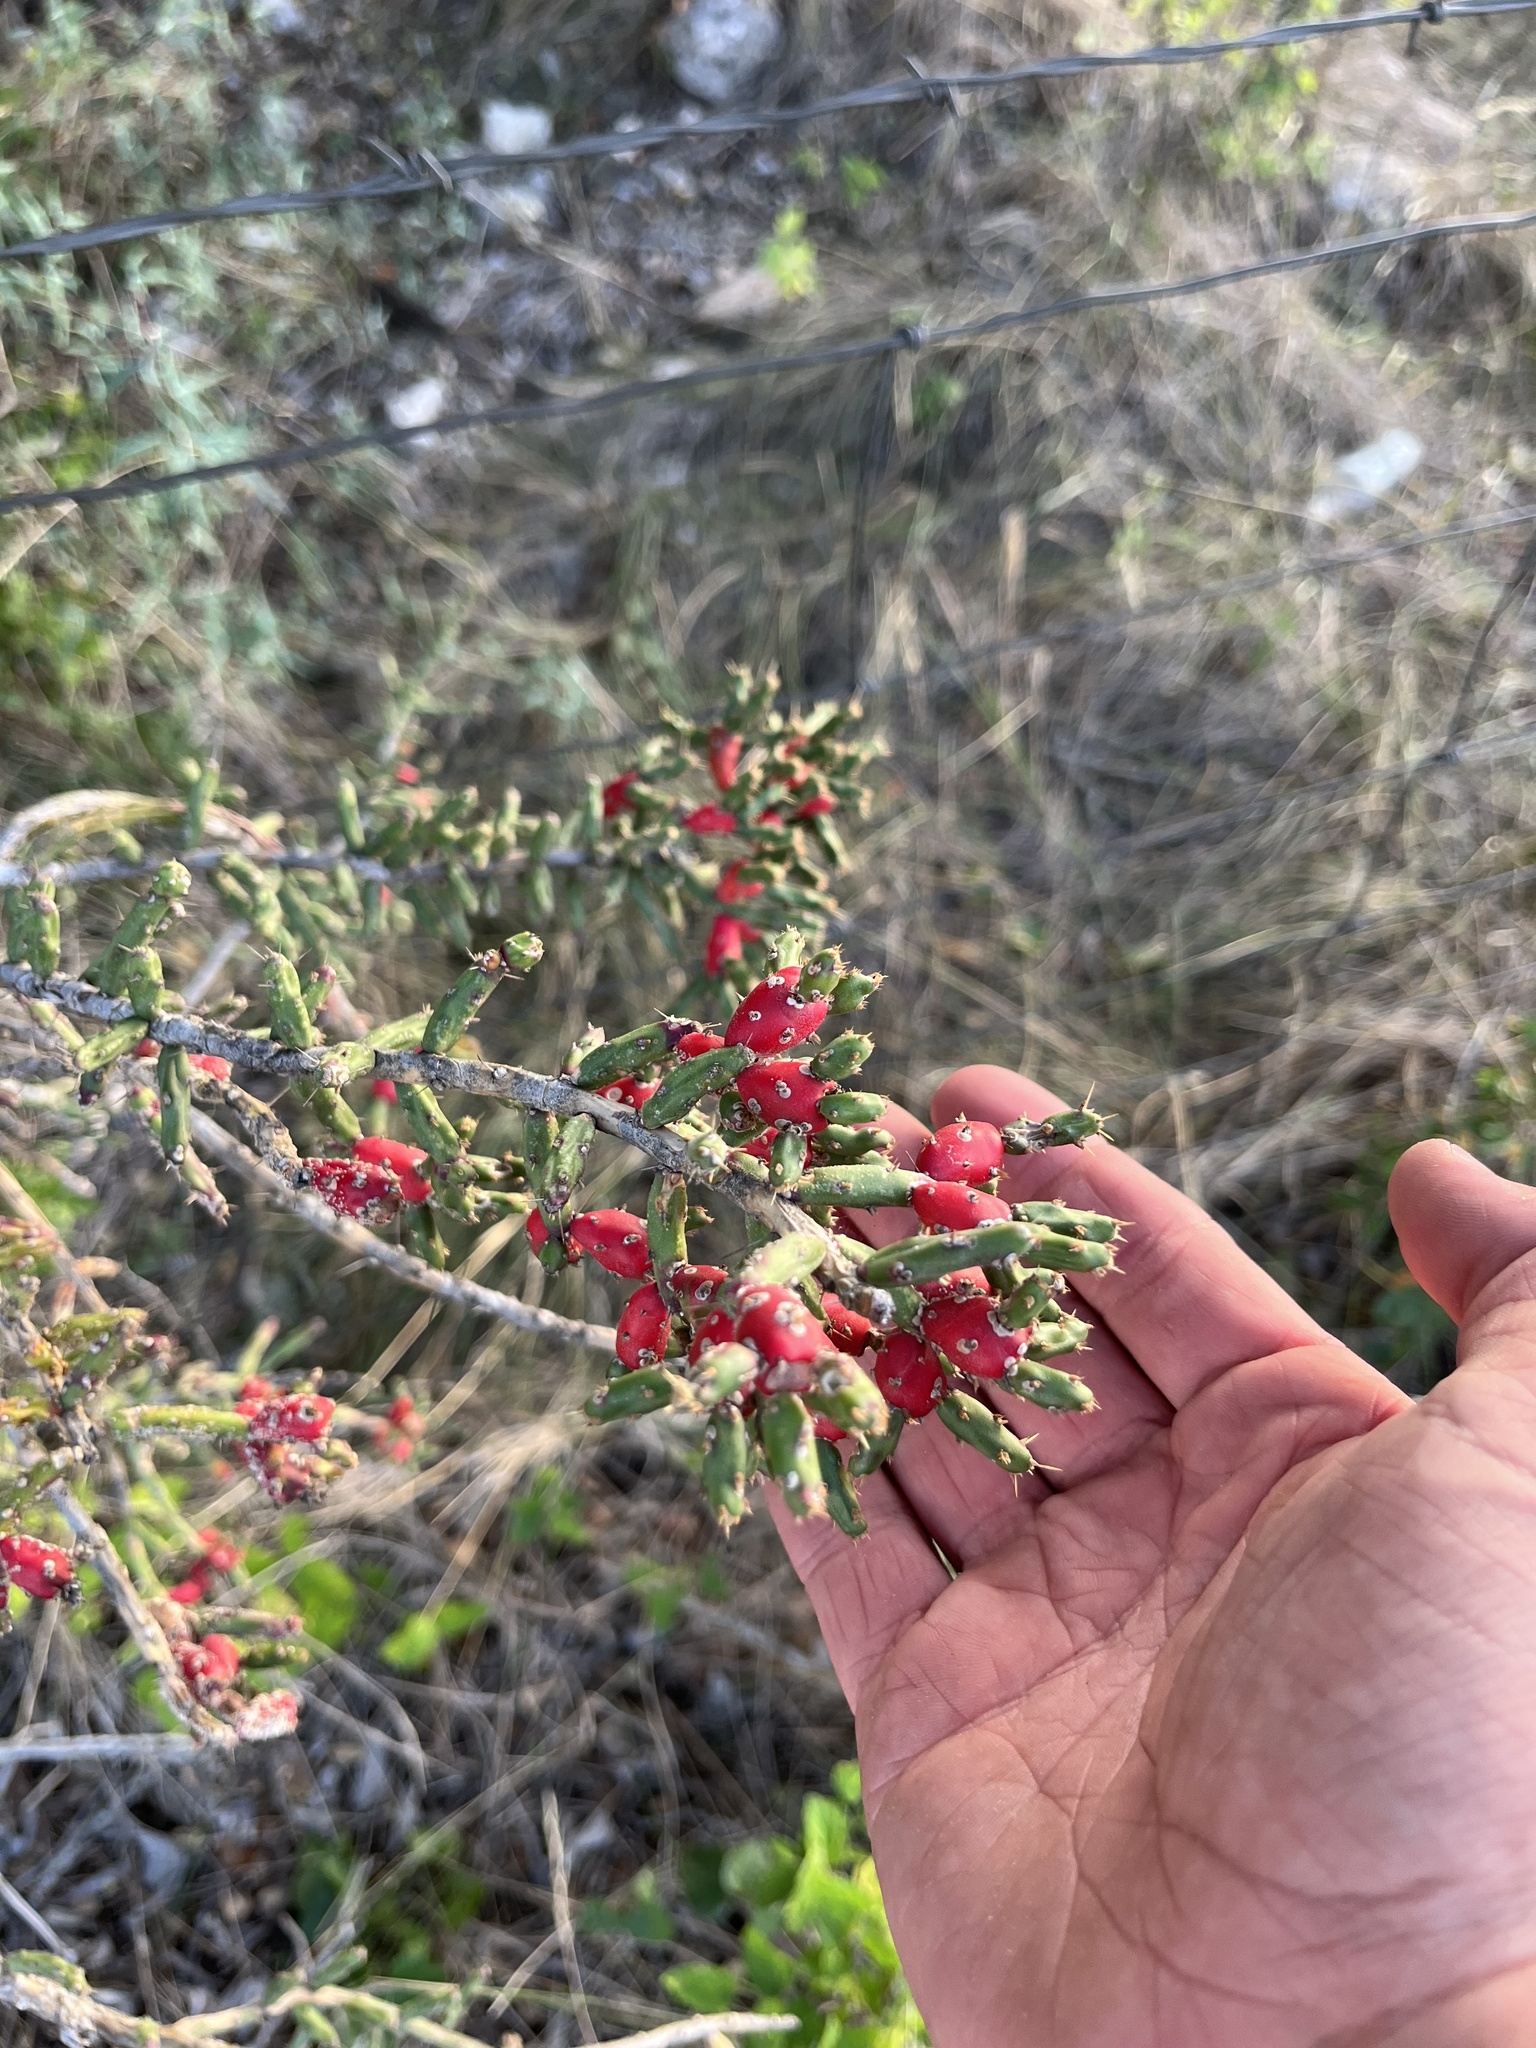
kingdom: Plantae
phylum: Tracheophyta
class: Magnoliopsida
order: Caryophyllales
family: Cactaceae
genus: Cylindropuntia
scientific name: Cylindropuntia leptocaulis
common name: Christmas cactus
